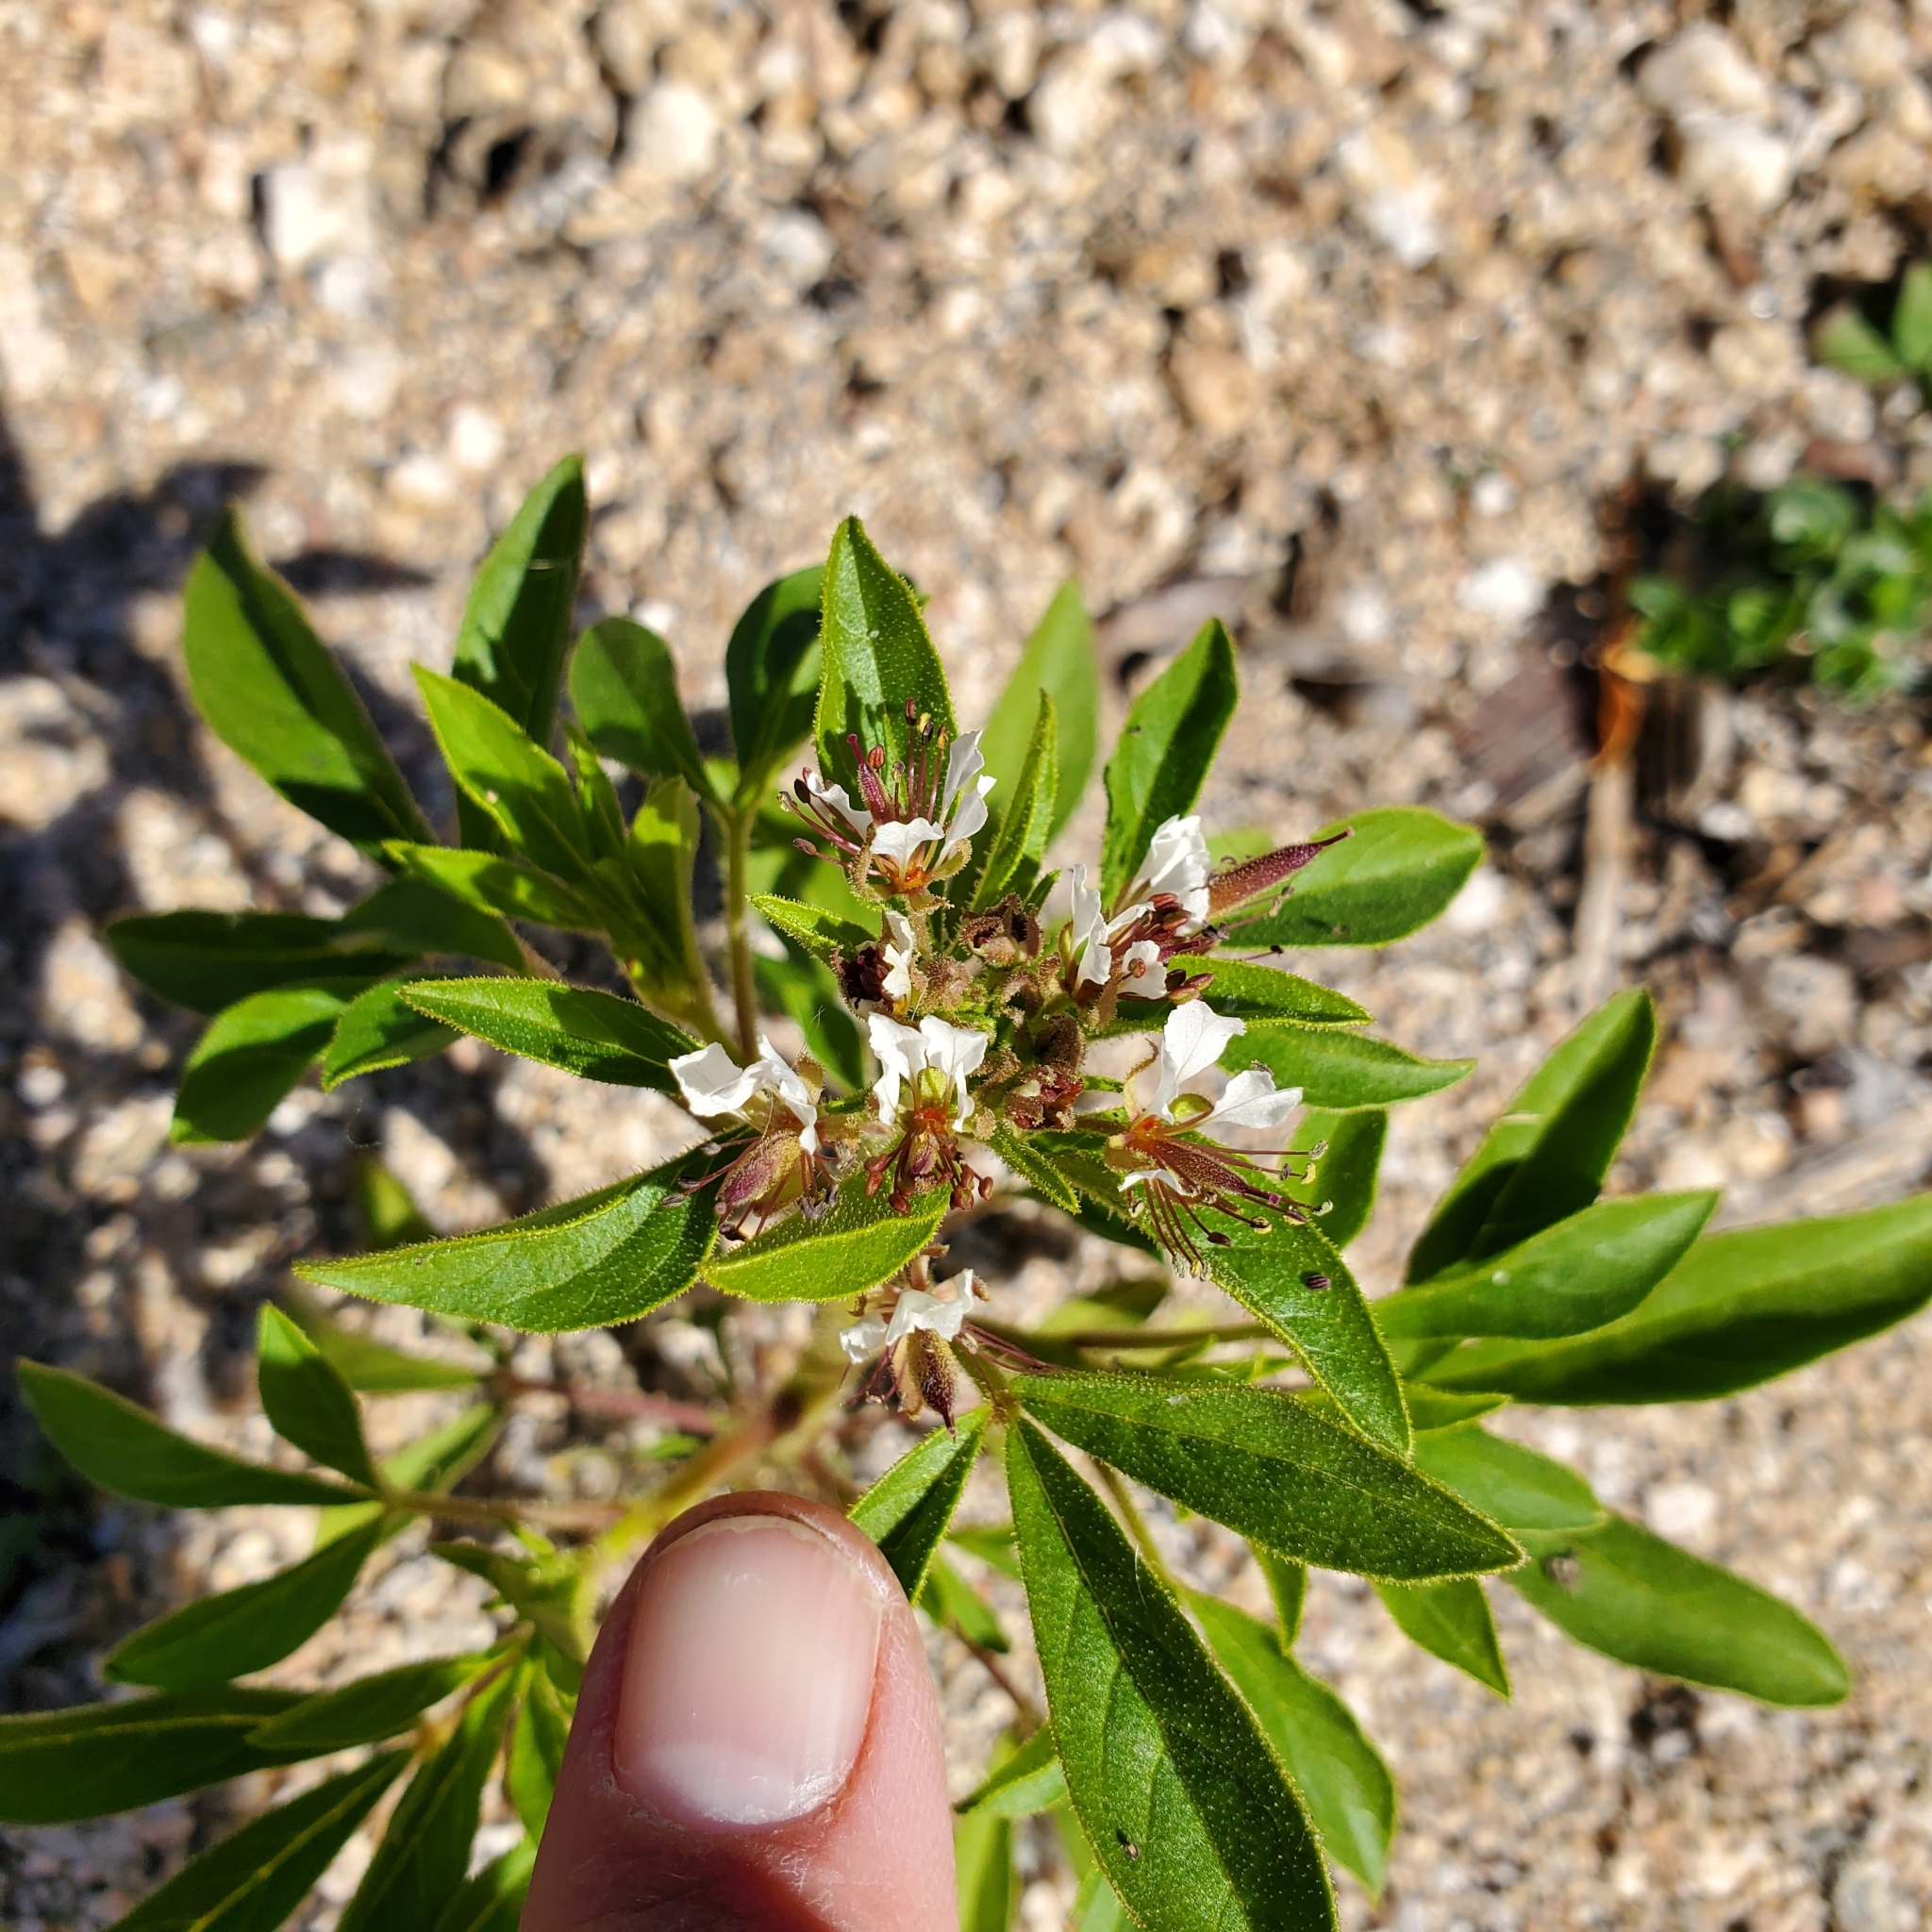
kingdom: Plantae
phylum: Tracheophyta
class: Magnoliopsida
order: Brassicales
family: Cleomaceae
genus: Polanisia
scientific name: Polanisia dodecandra
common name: Clammyweed
